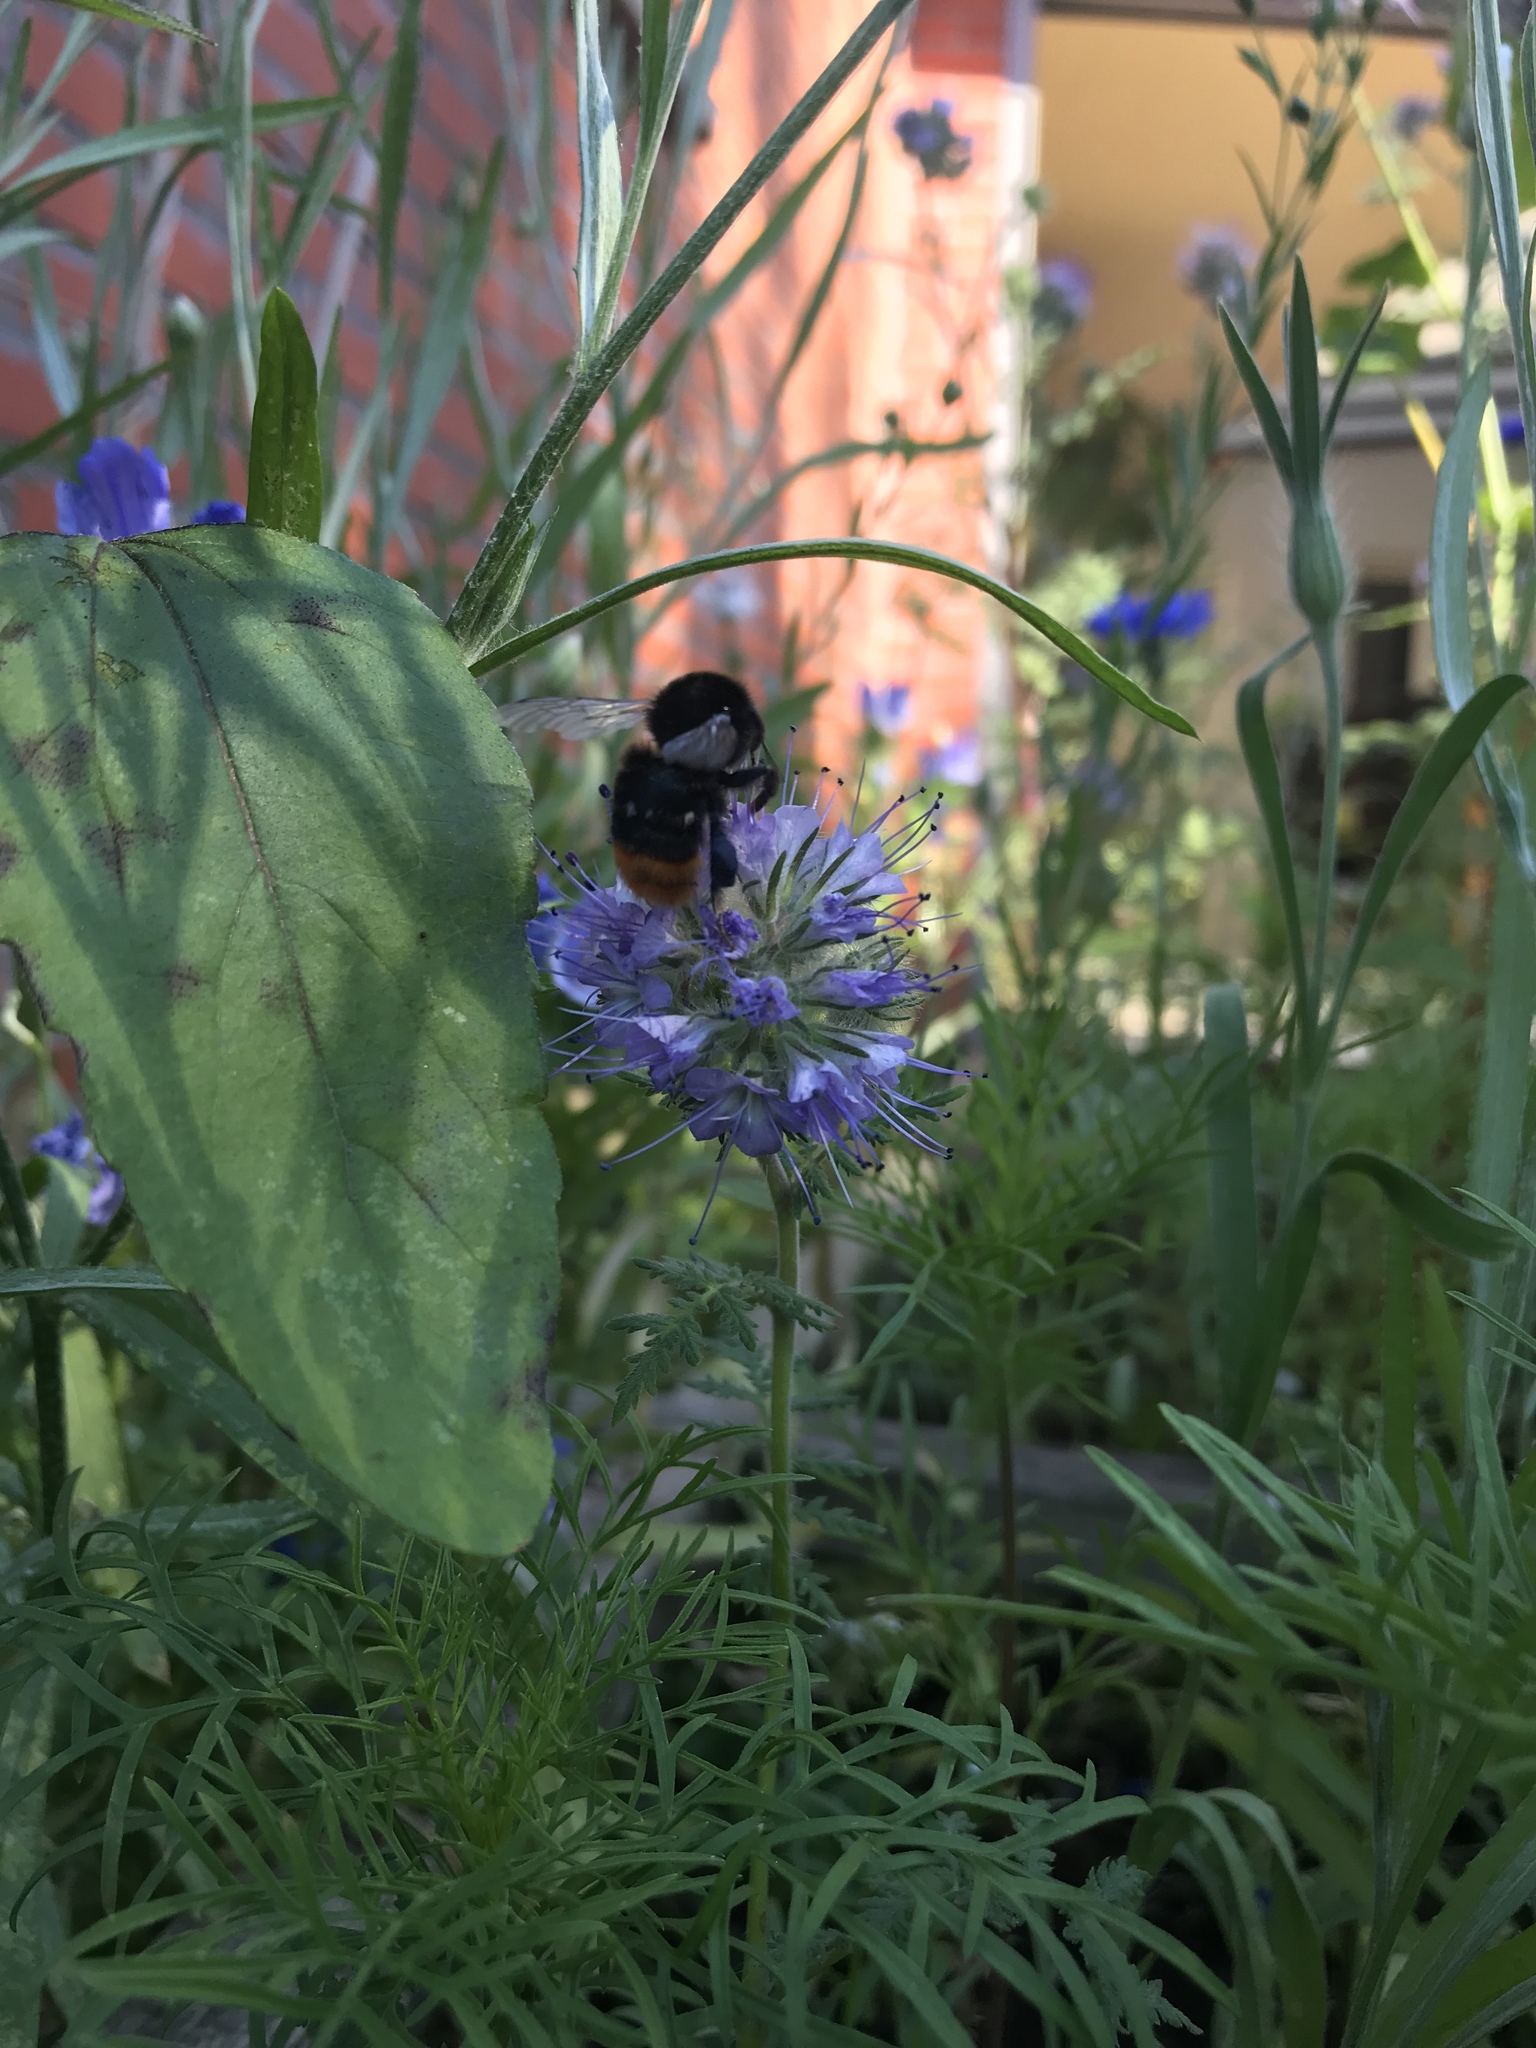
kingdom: Animalia
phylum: Arthropoda
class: Insecta
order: Hymenoptera
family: Apidae
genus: Bombus
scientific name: Bombus lapidarius
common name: Large red-tailed humble-bee
